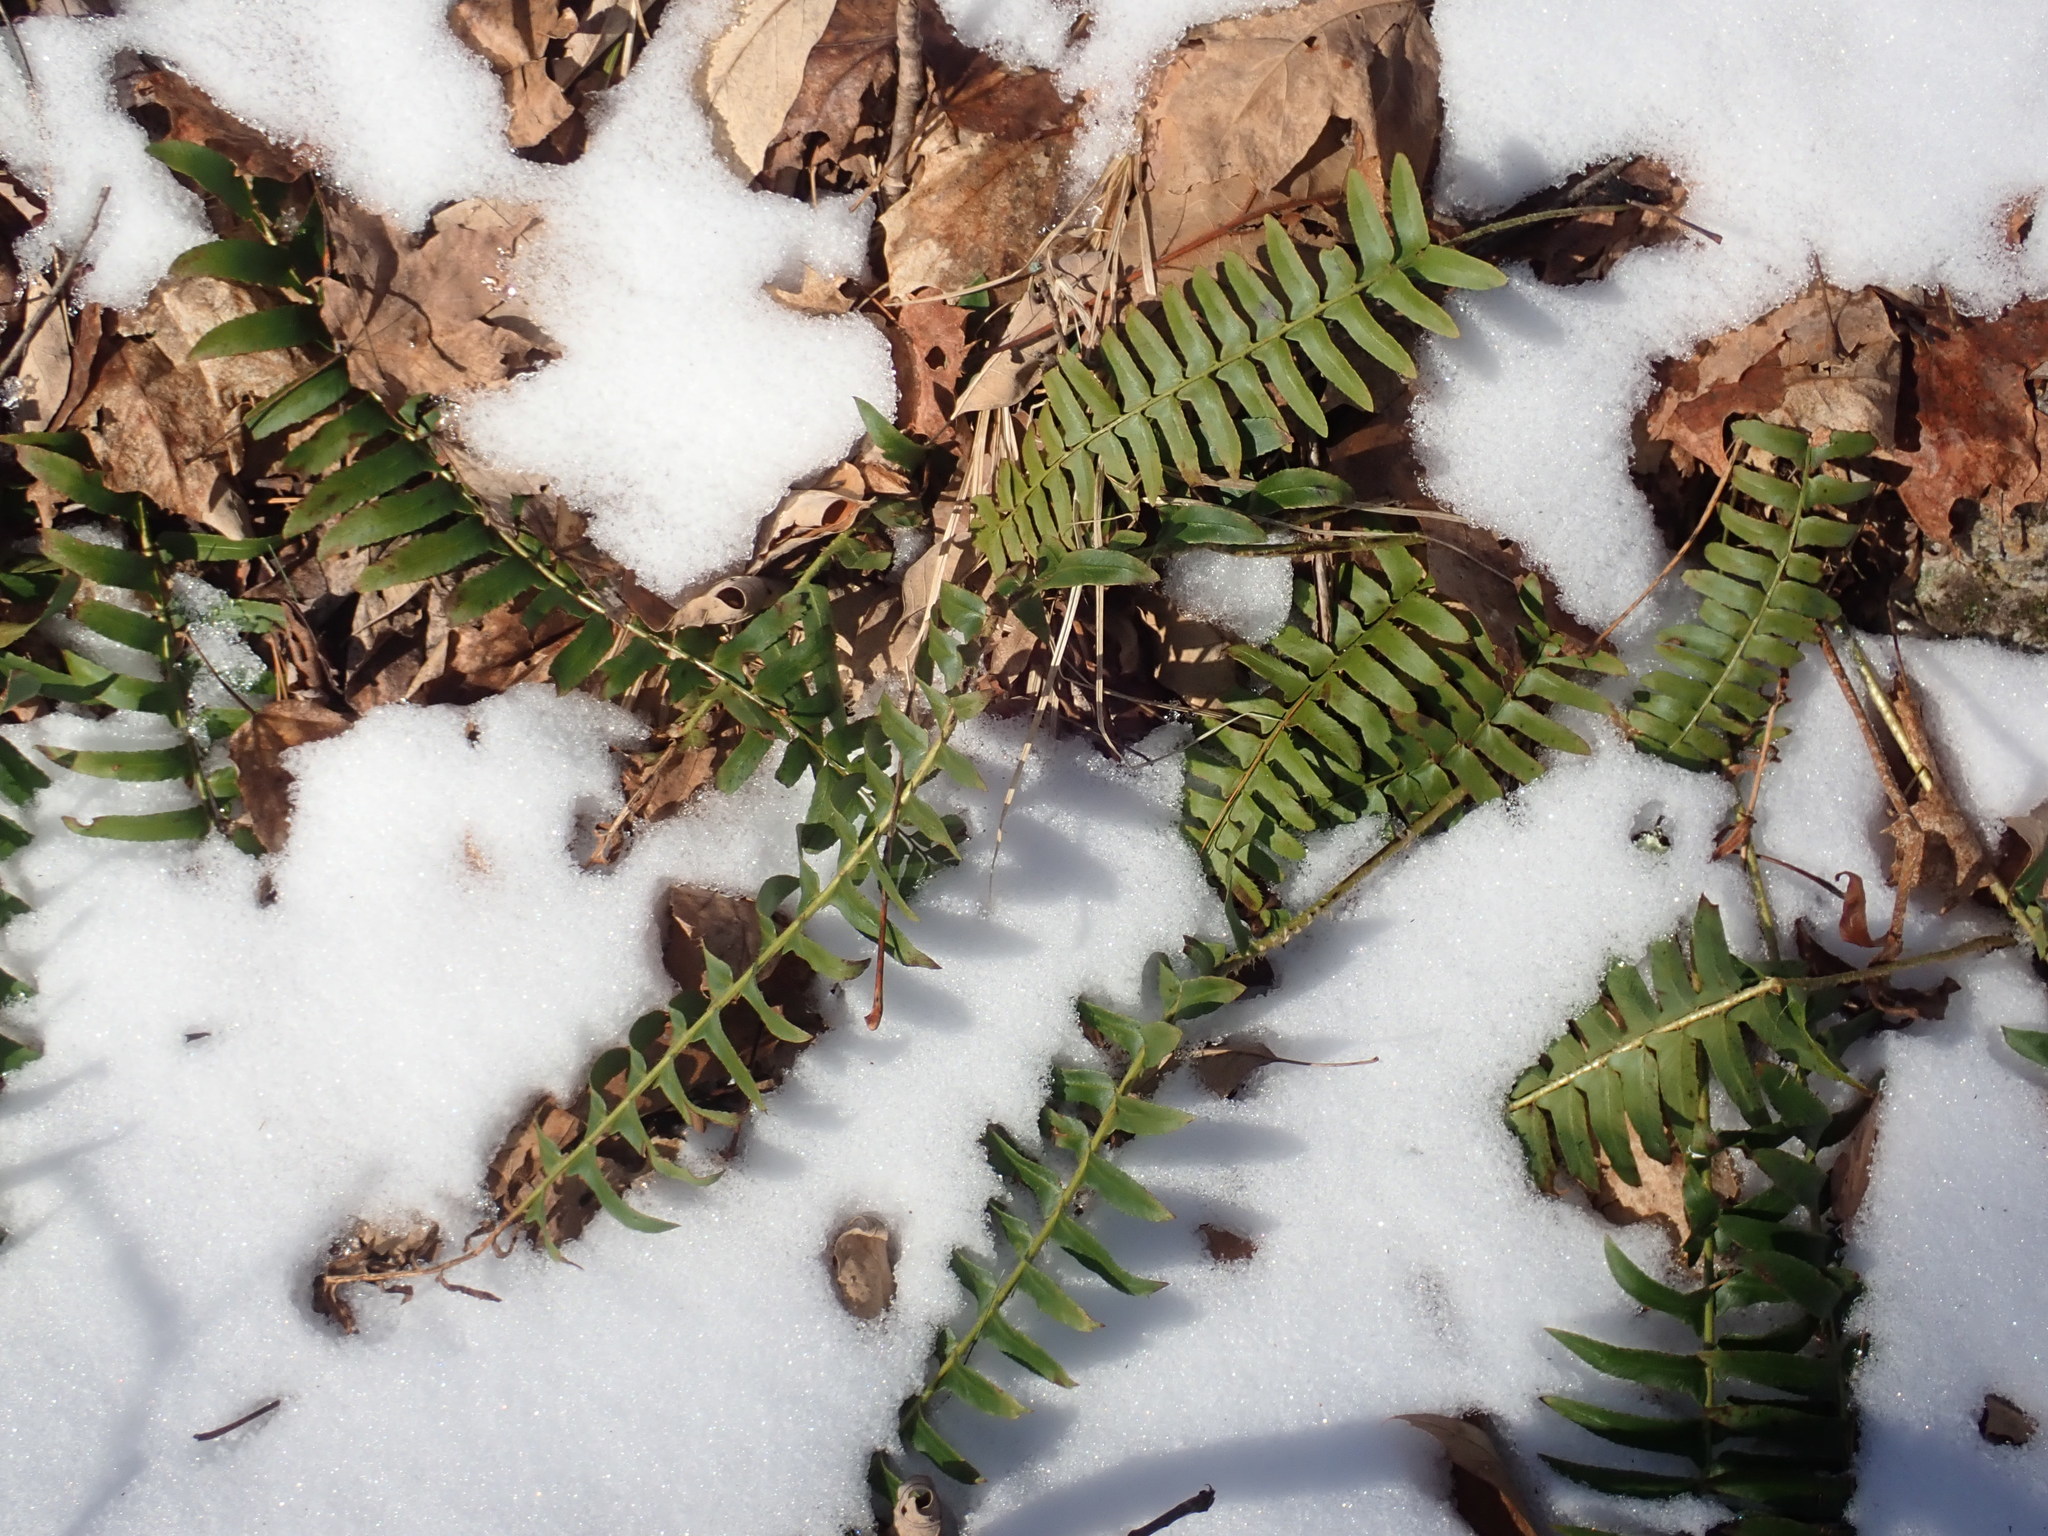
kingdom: Plantae
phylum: Tracheophyta
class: Polypodiopsida
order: Polypodiales
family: Dryopteridaceae
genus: Polystichum
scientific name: Polystichum acrostichoides
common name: Christmas fern
